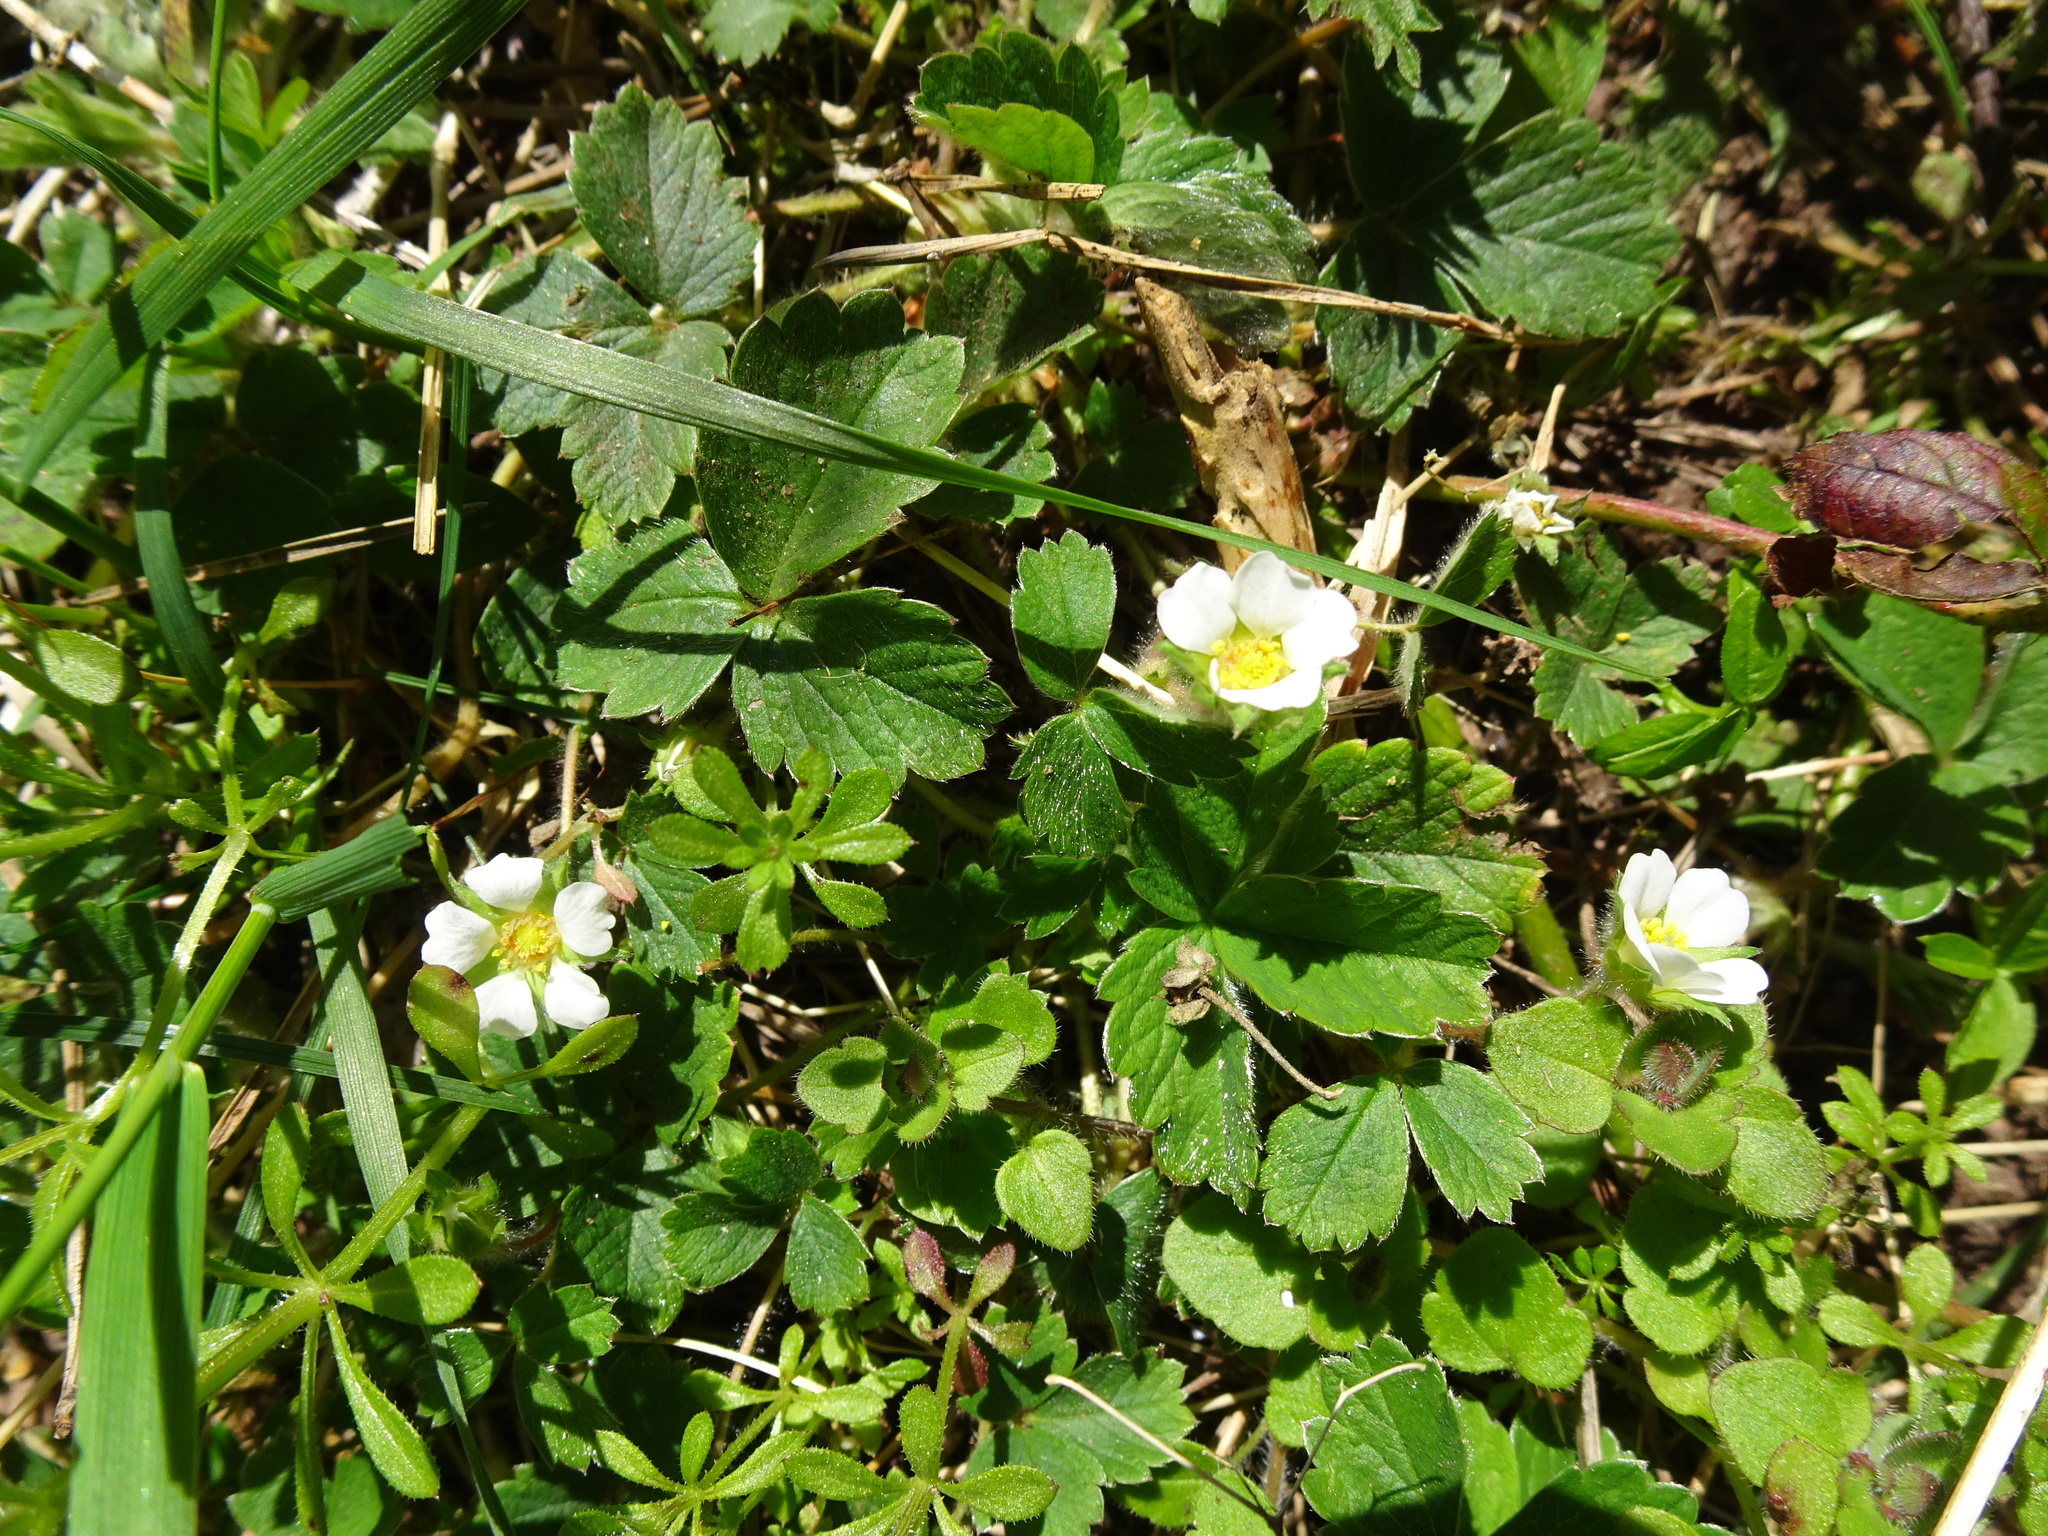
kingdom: Plantae
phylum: Tracheophyta
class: Magnoliopsida
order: Rosales
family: Rosaceae
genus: Potentilla
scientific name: Potentilla sterilis
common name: Barren strawberry
